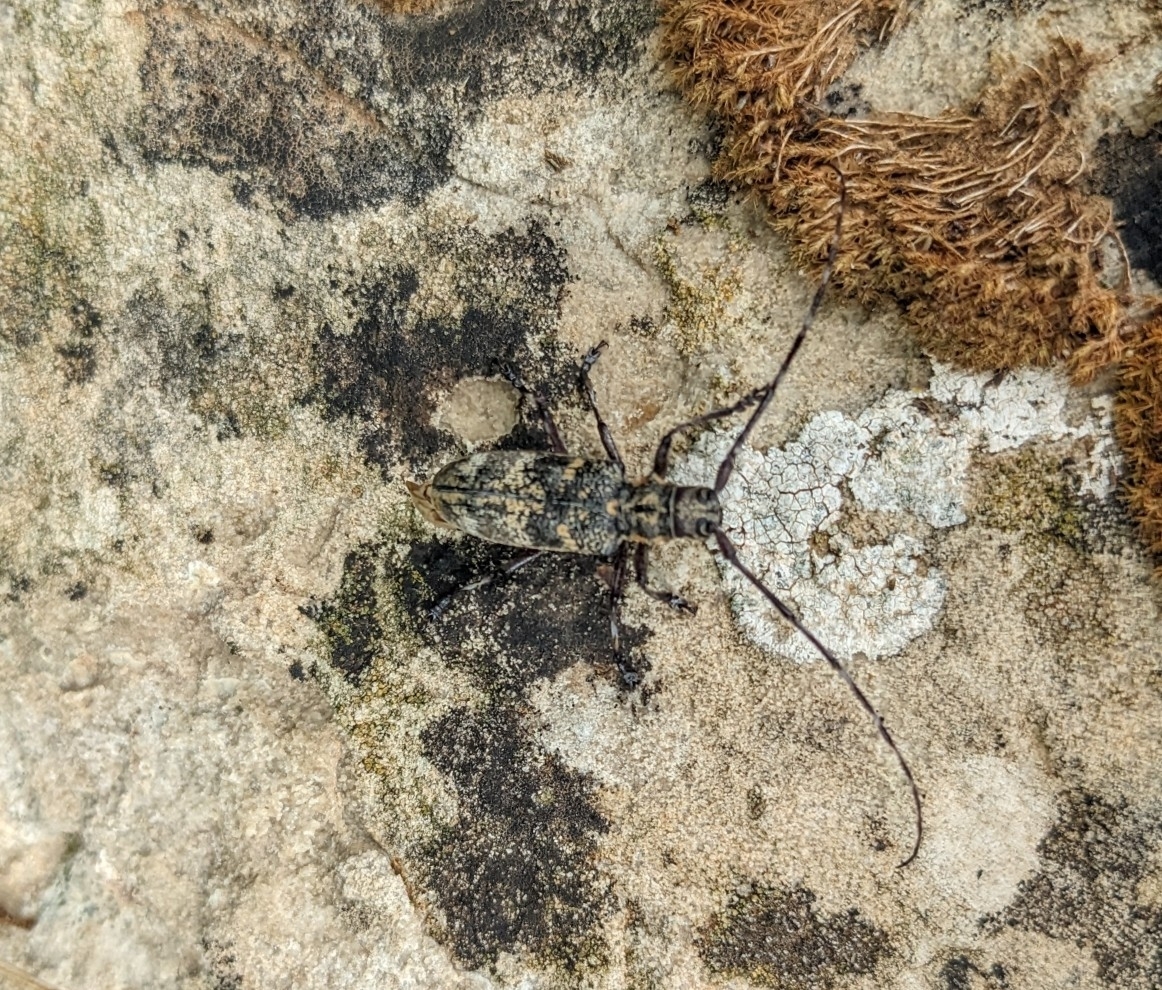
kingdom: Animalia
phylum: Arthropoda
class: Insecta
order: Coleoptera
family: Cerambycidae
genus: Monochamus
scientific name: Monochamus galloprovincialis
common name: Pine sawyer
